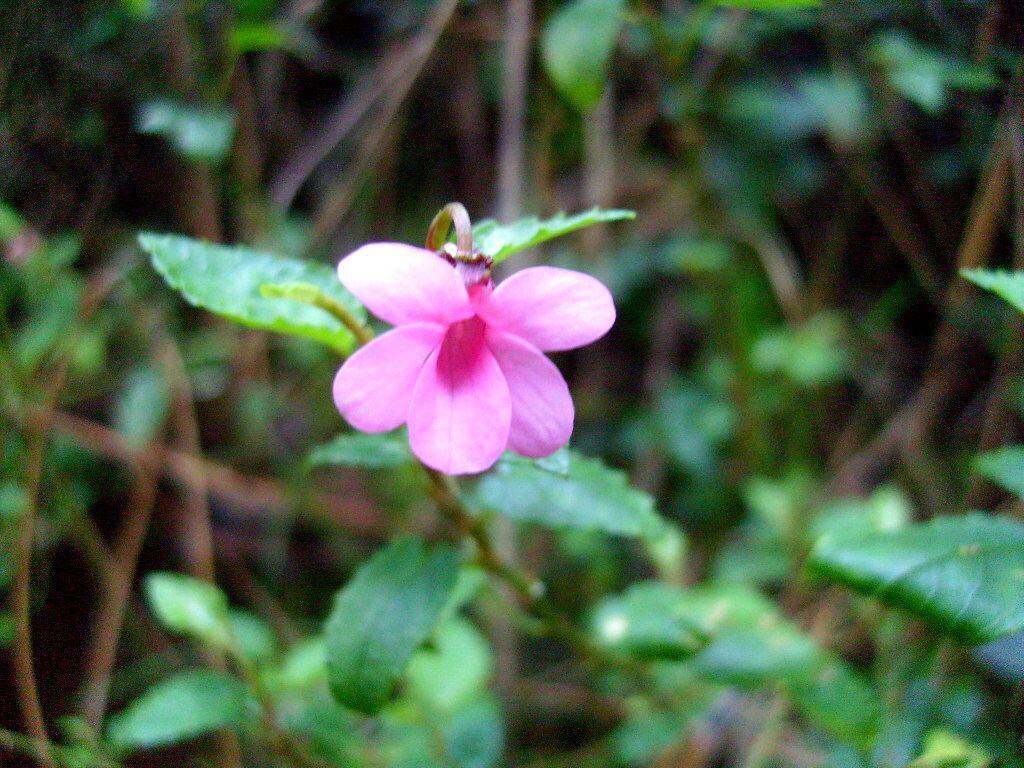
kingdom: Plantae
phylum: Tracheophyta
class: Magnoliopsida
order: Malpighiales
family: Violaceae
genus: Viola
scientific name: Viola rubella
